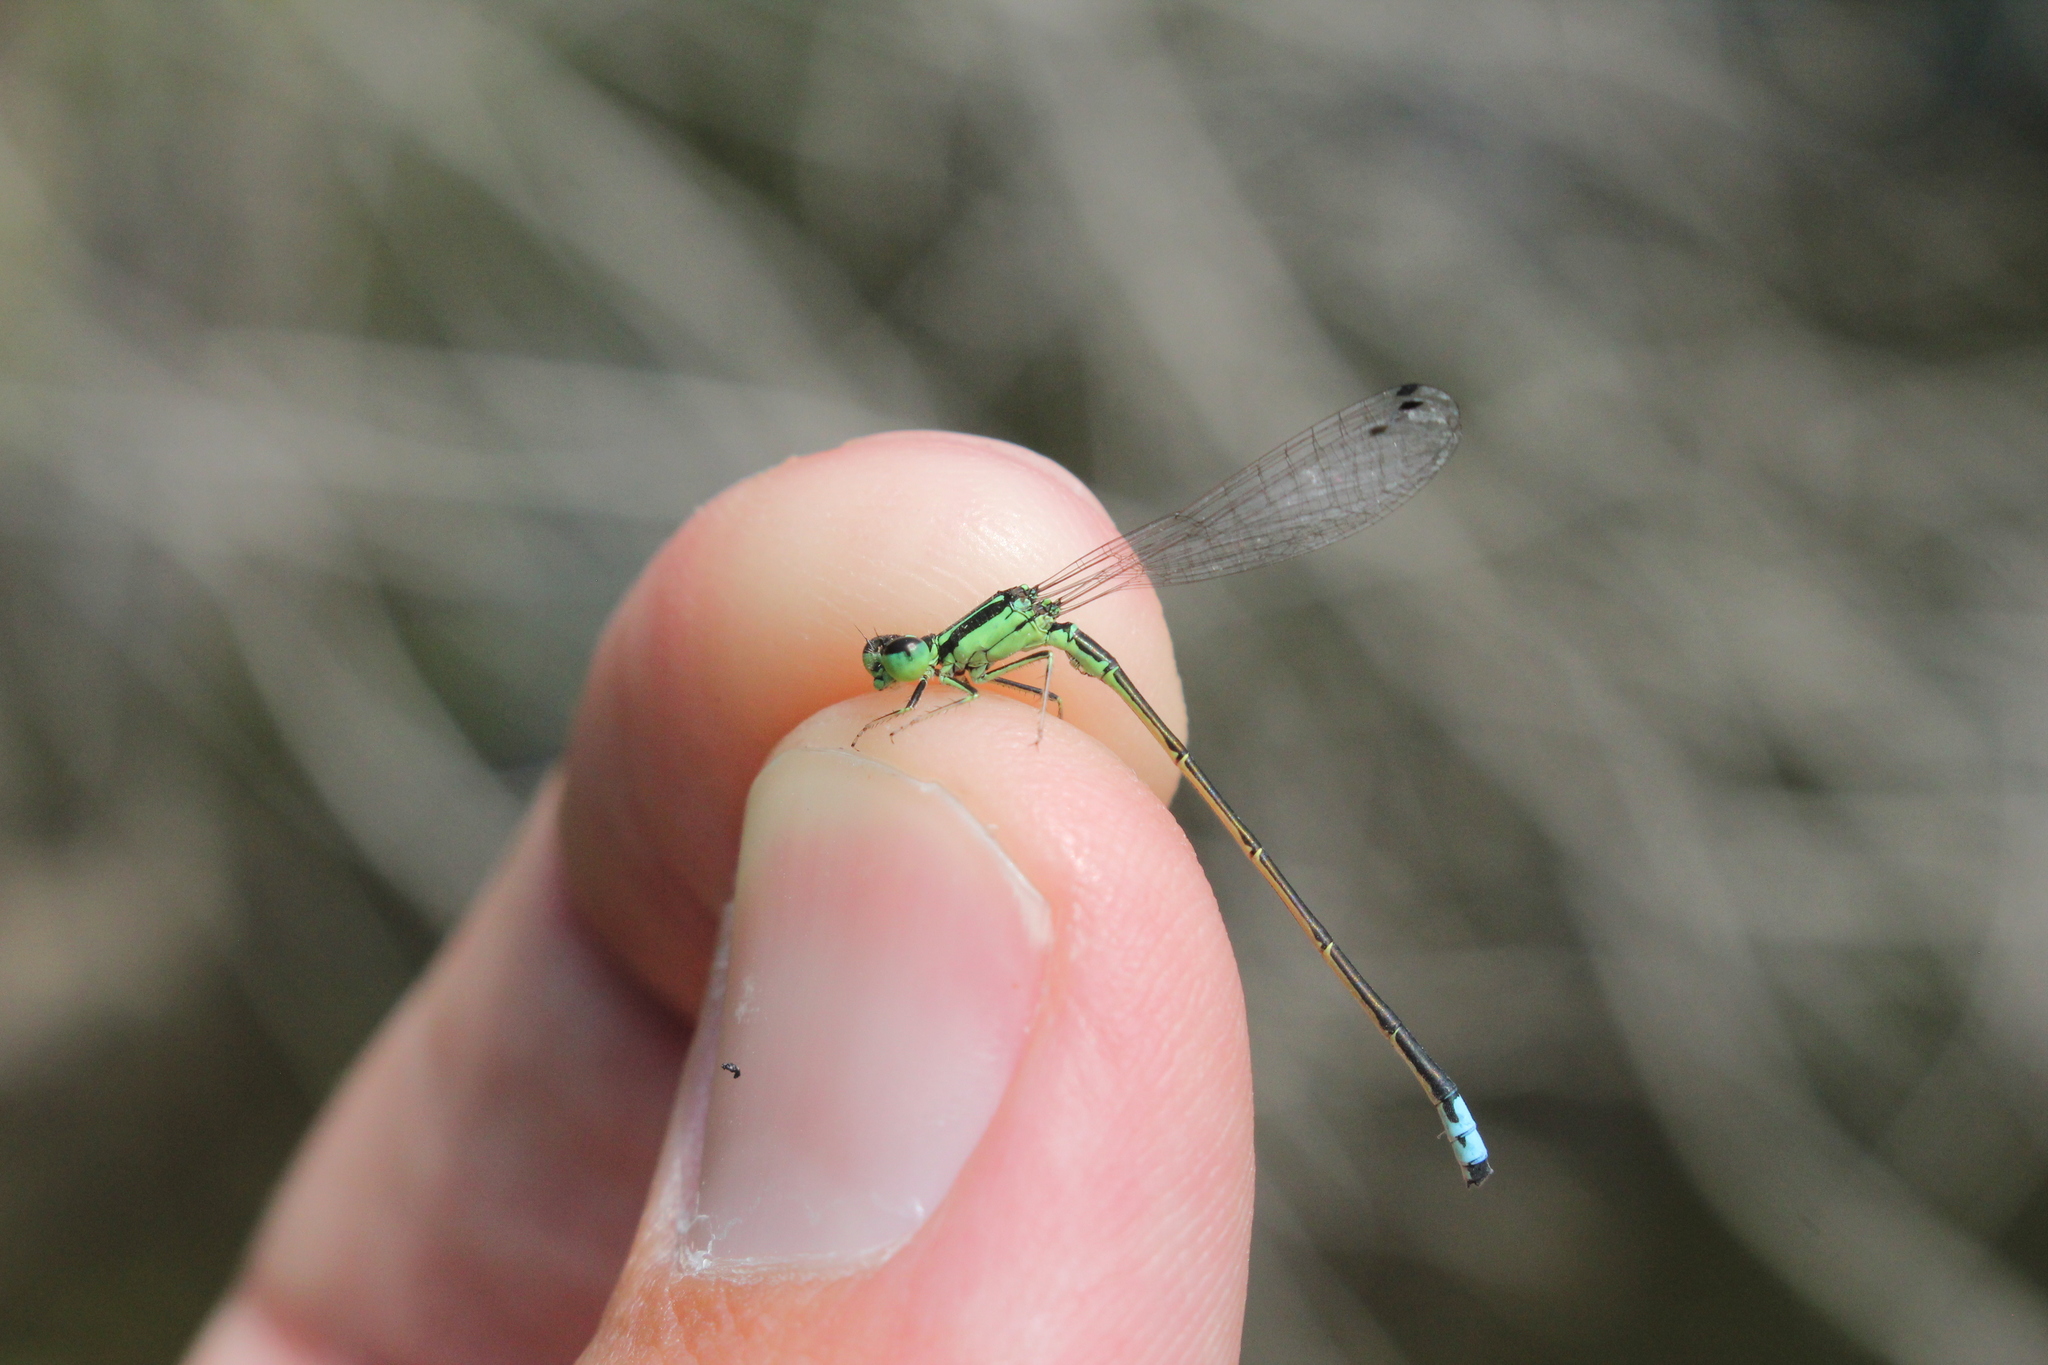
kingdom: Animalia
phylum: Arthropoda
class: Insecta
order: Odonata
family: Coenagrionidae
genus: Ischnura
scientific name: Ischnura verticalis
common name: Eastern forktail
